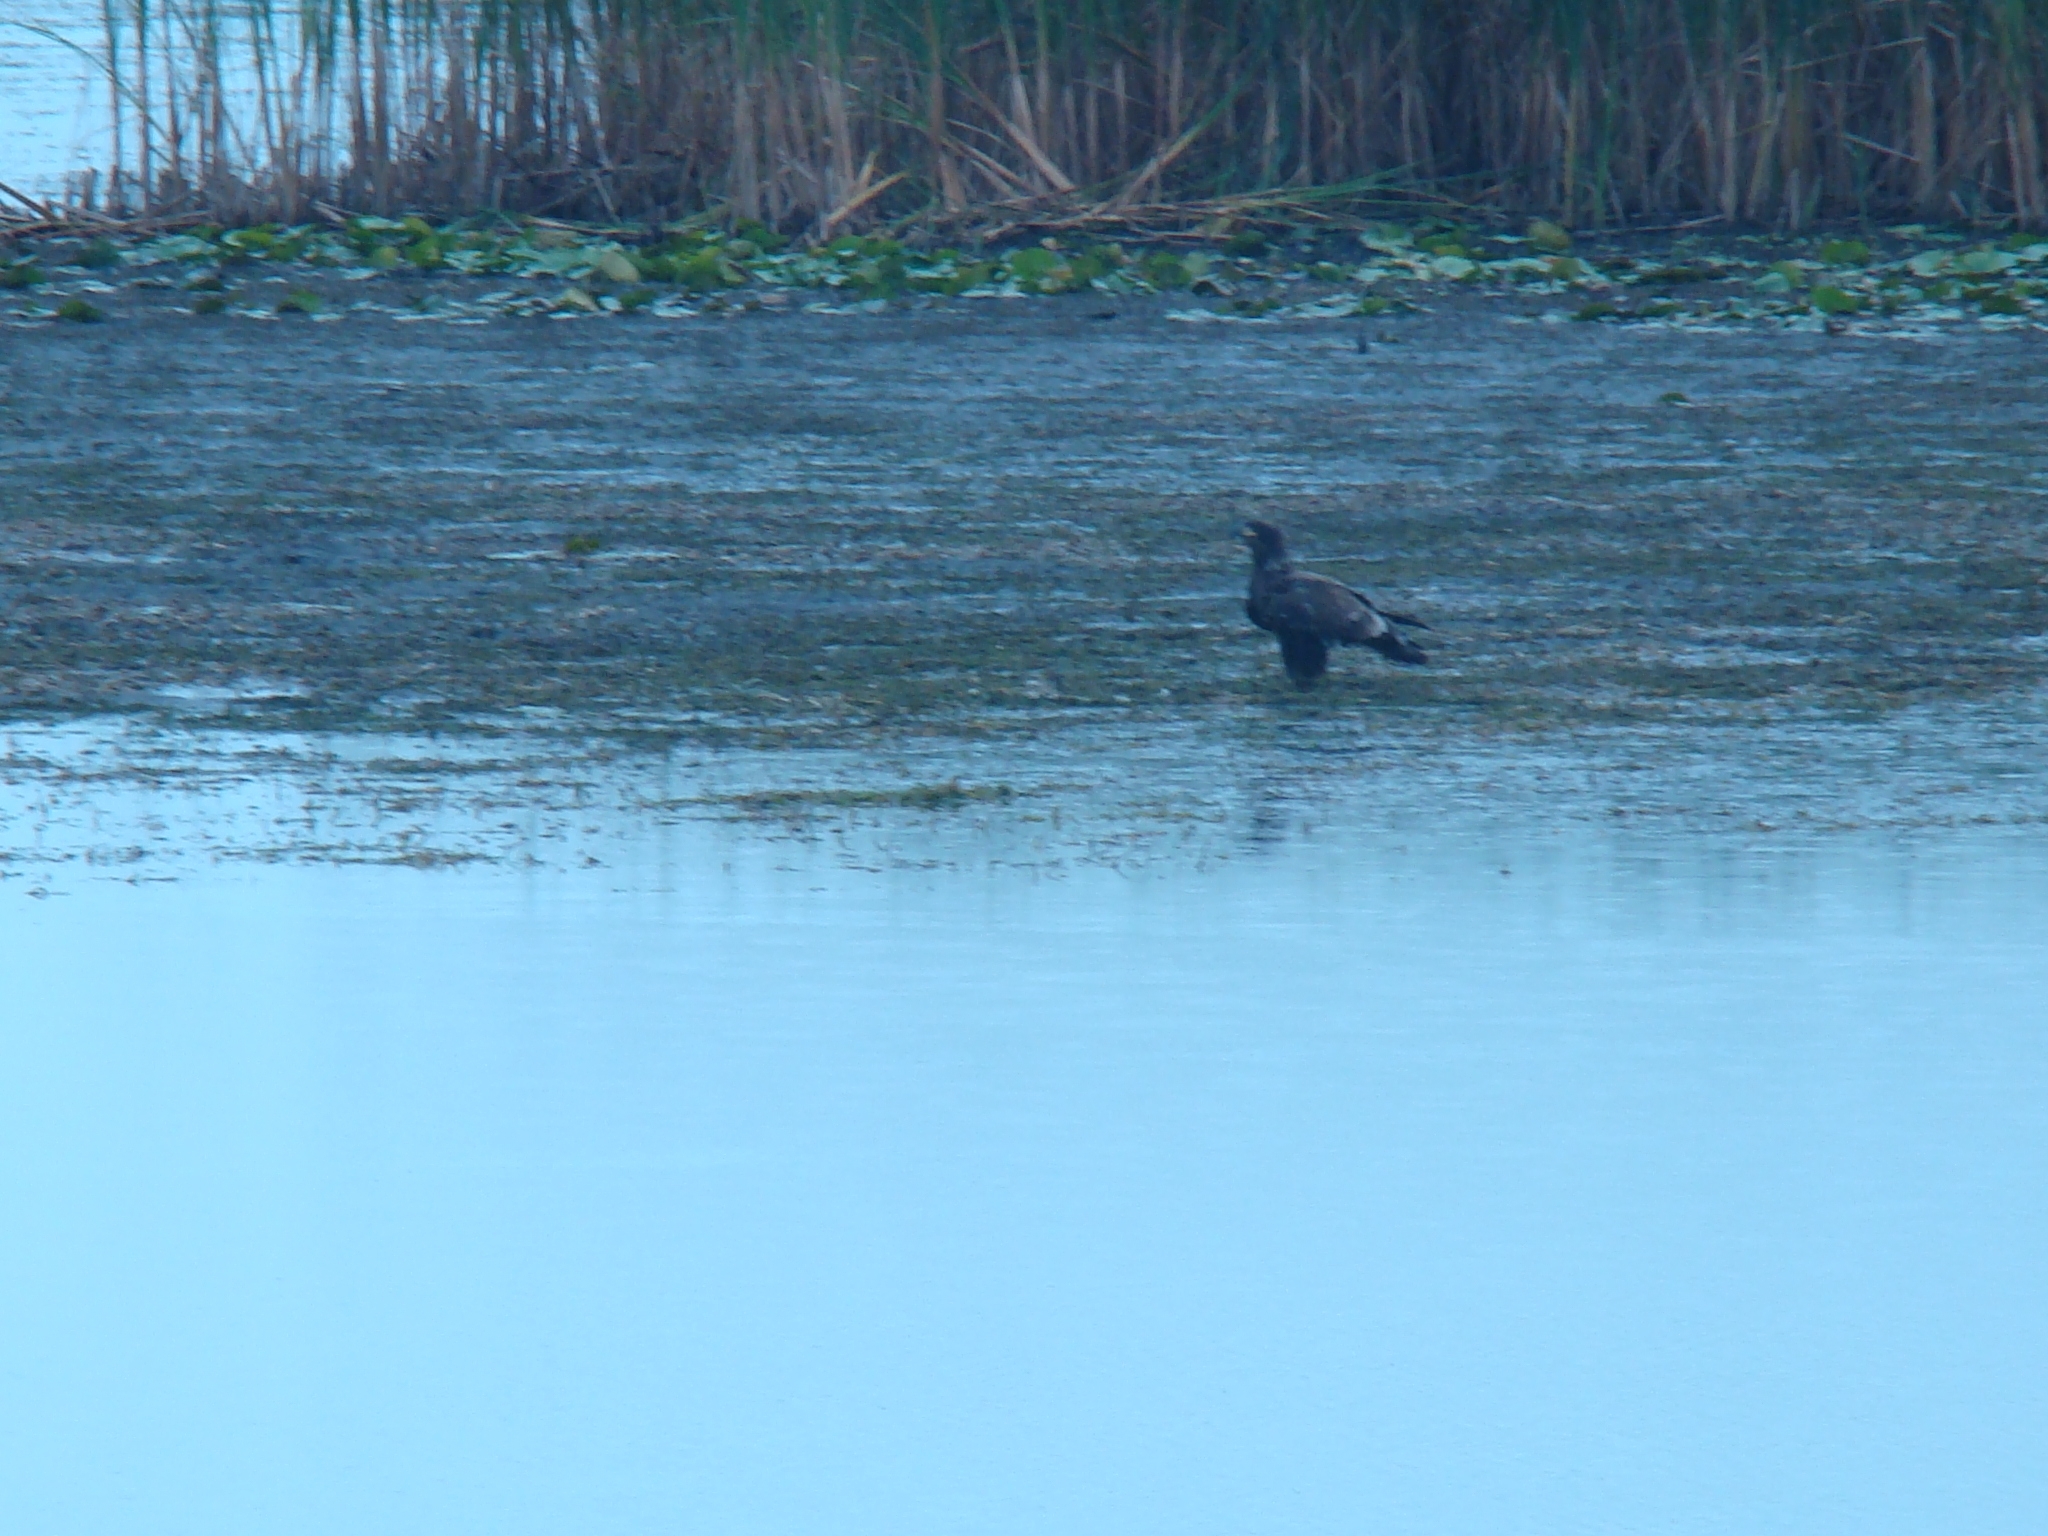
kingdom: Animalia
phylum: Chordata
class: Aves
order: Accipitriformes
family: Accipitridae
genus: Haliaeetus
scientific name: Haliaeetus leucocephalus
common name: Bald eagle
